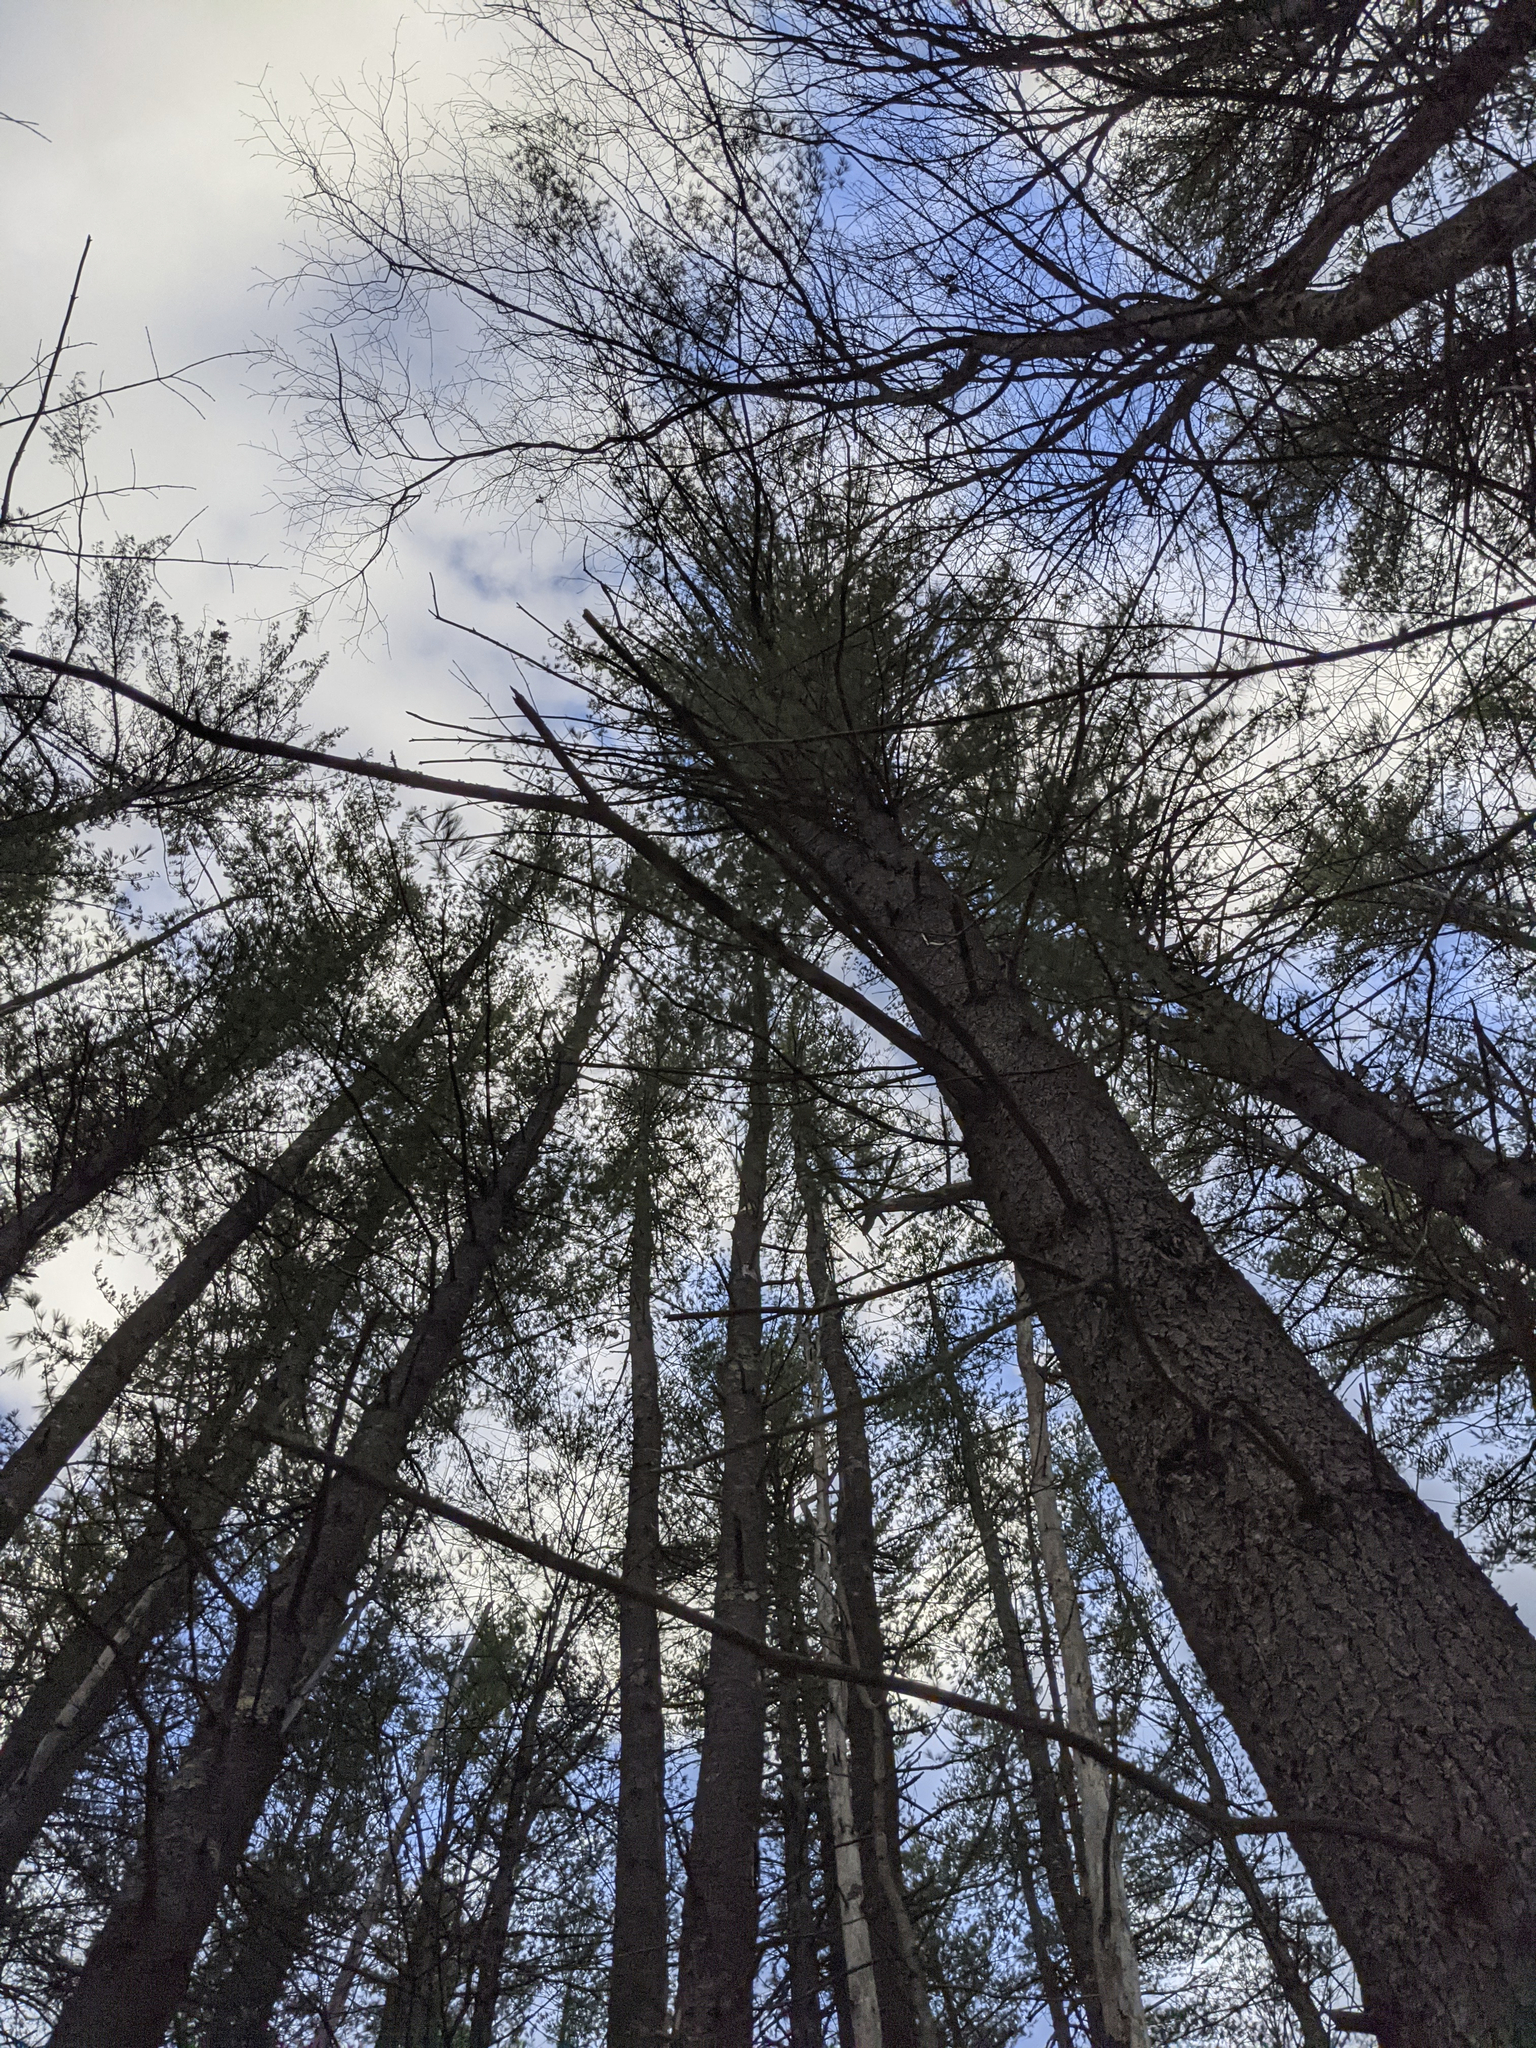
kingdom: Plantae
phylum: Tracheophyta
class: Pinopsida
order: Pinales
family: Pinaceae
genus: Pinus
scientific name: Pinus strobus
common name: Weymouth pine
